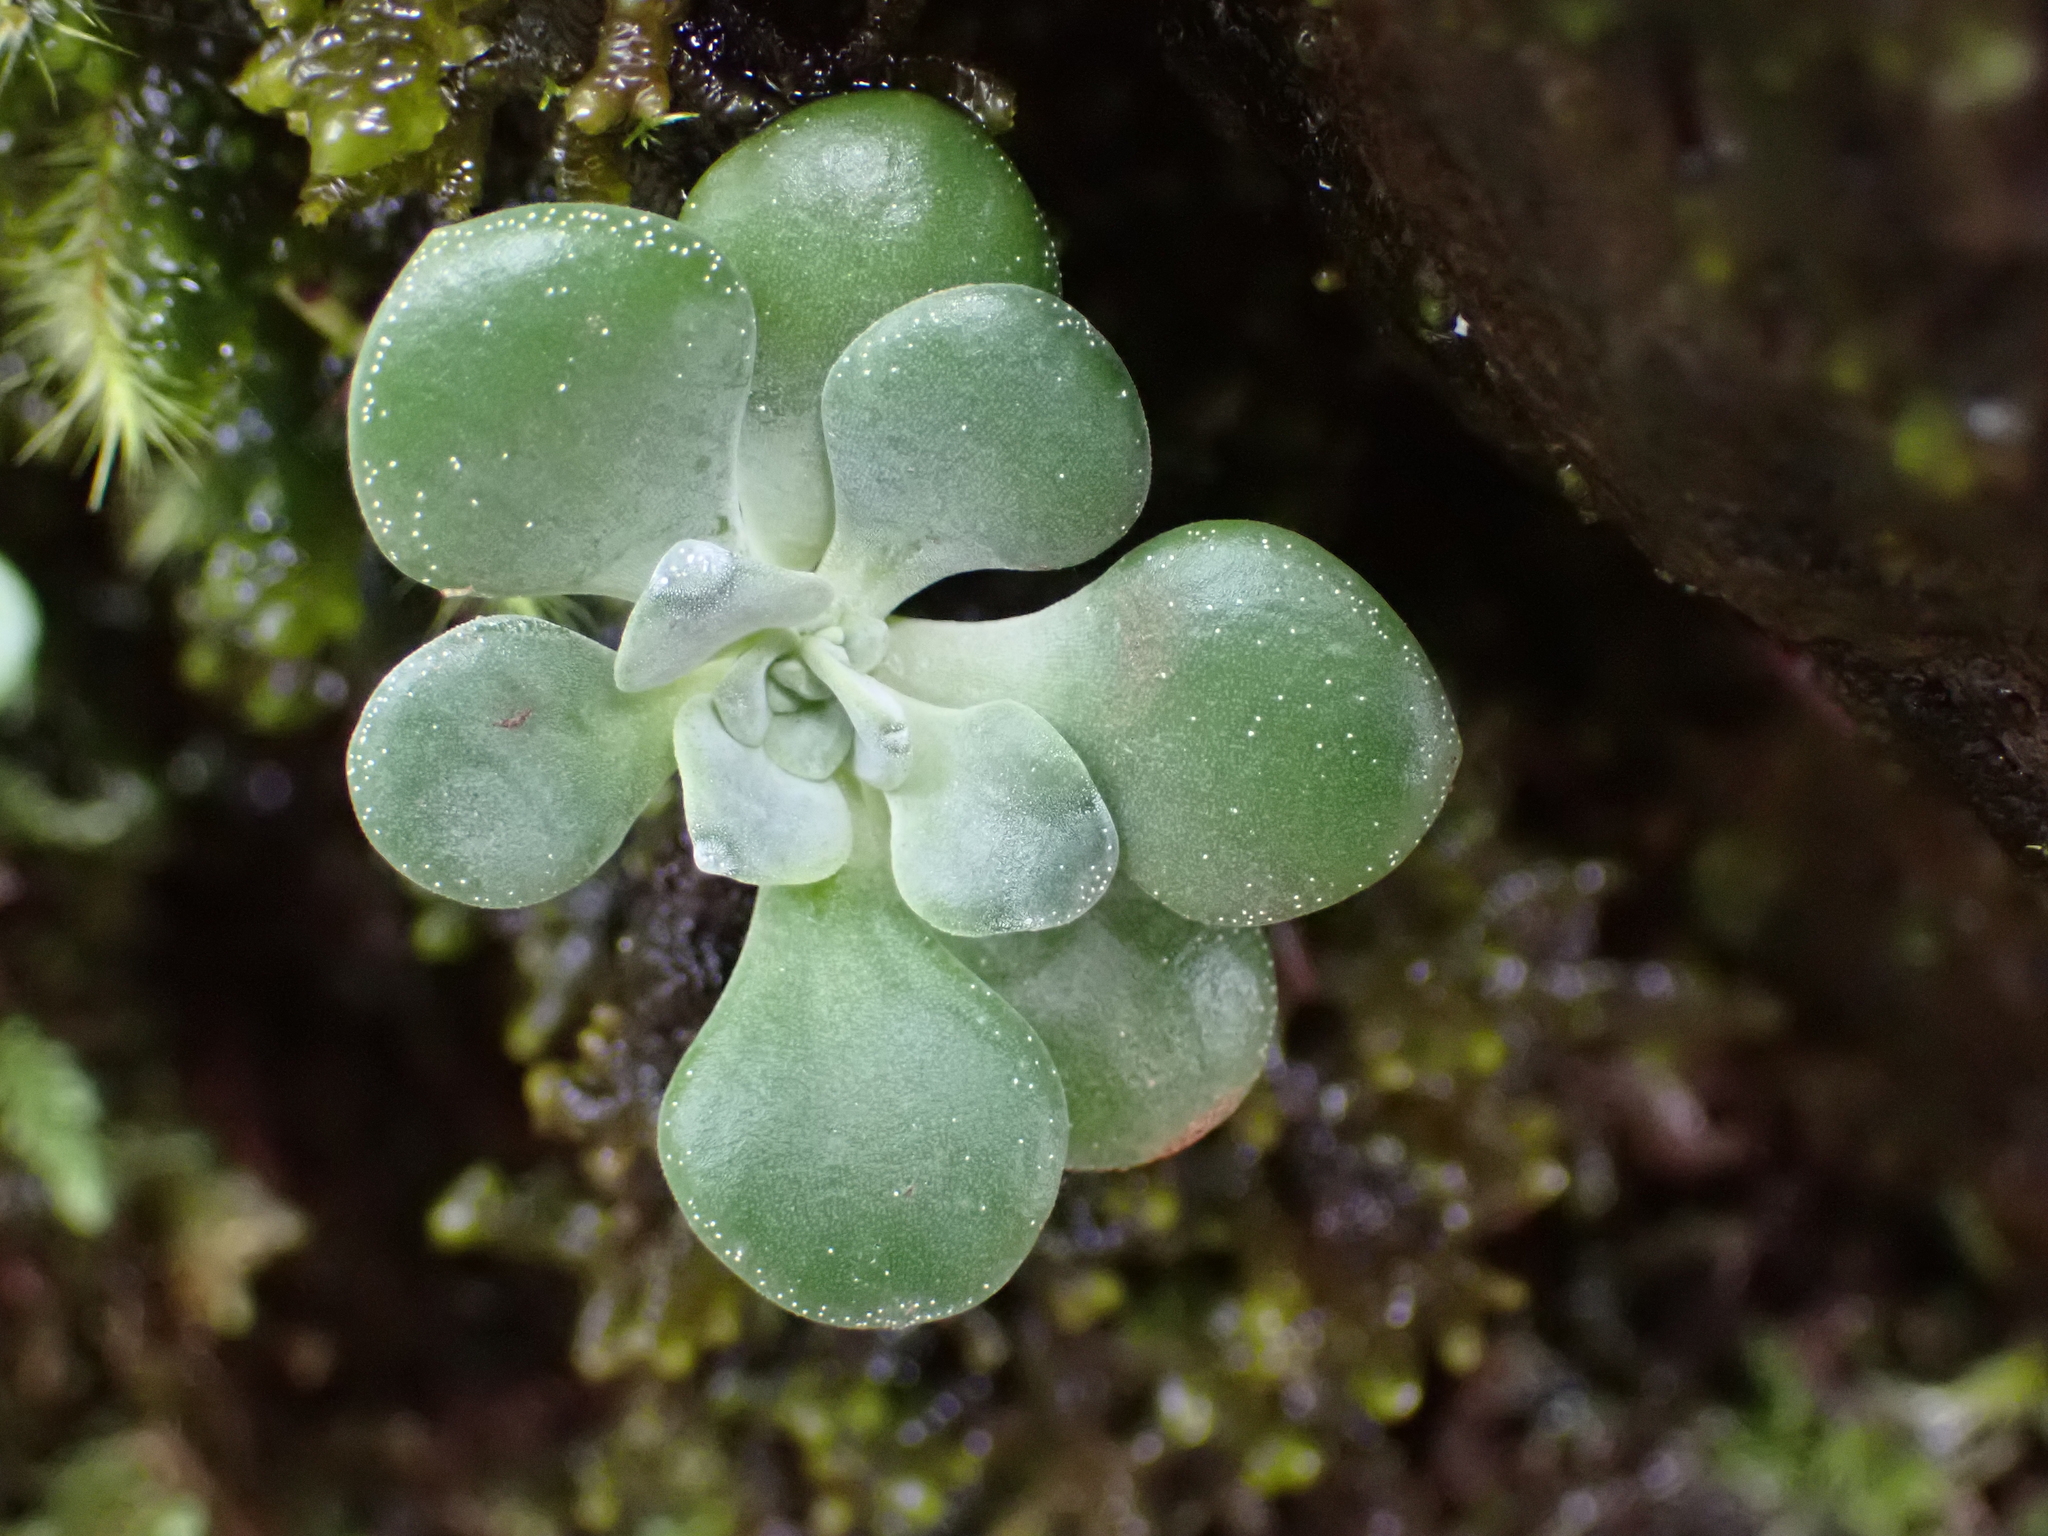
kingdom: Plantae
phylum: Tracheophyta
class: Magnoliopsida
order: Saxifragales
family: Crassulaceae
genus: Sedum
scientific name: Sedum spathulifolium
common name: Colorado stonecrop
